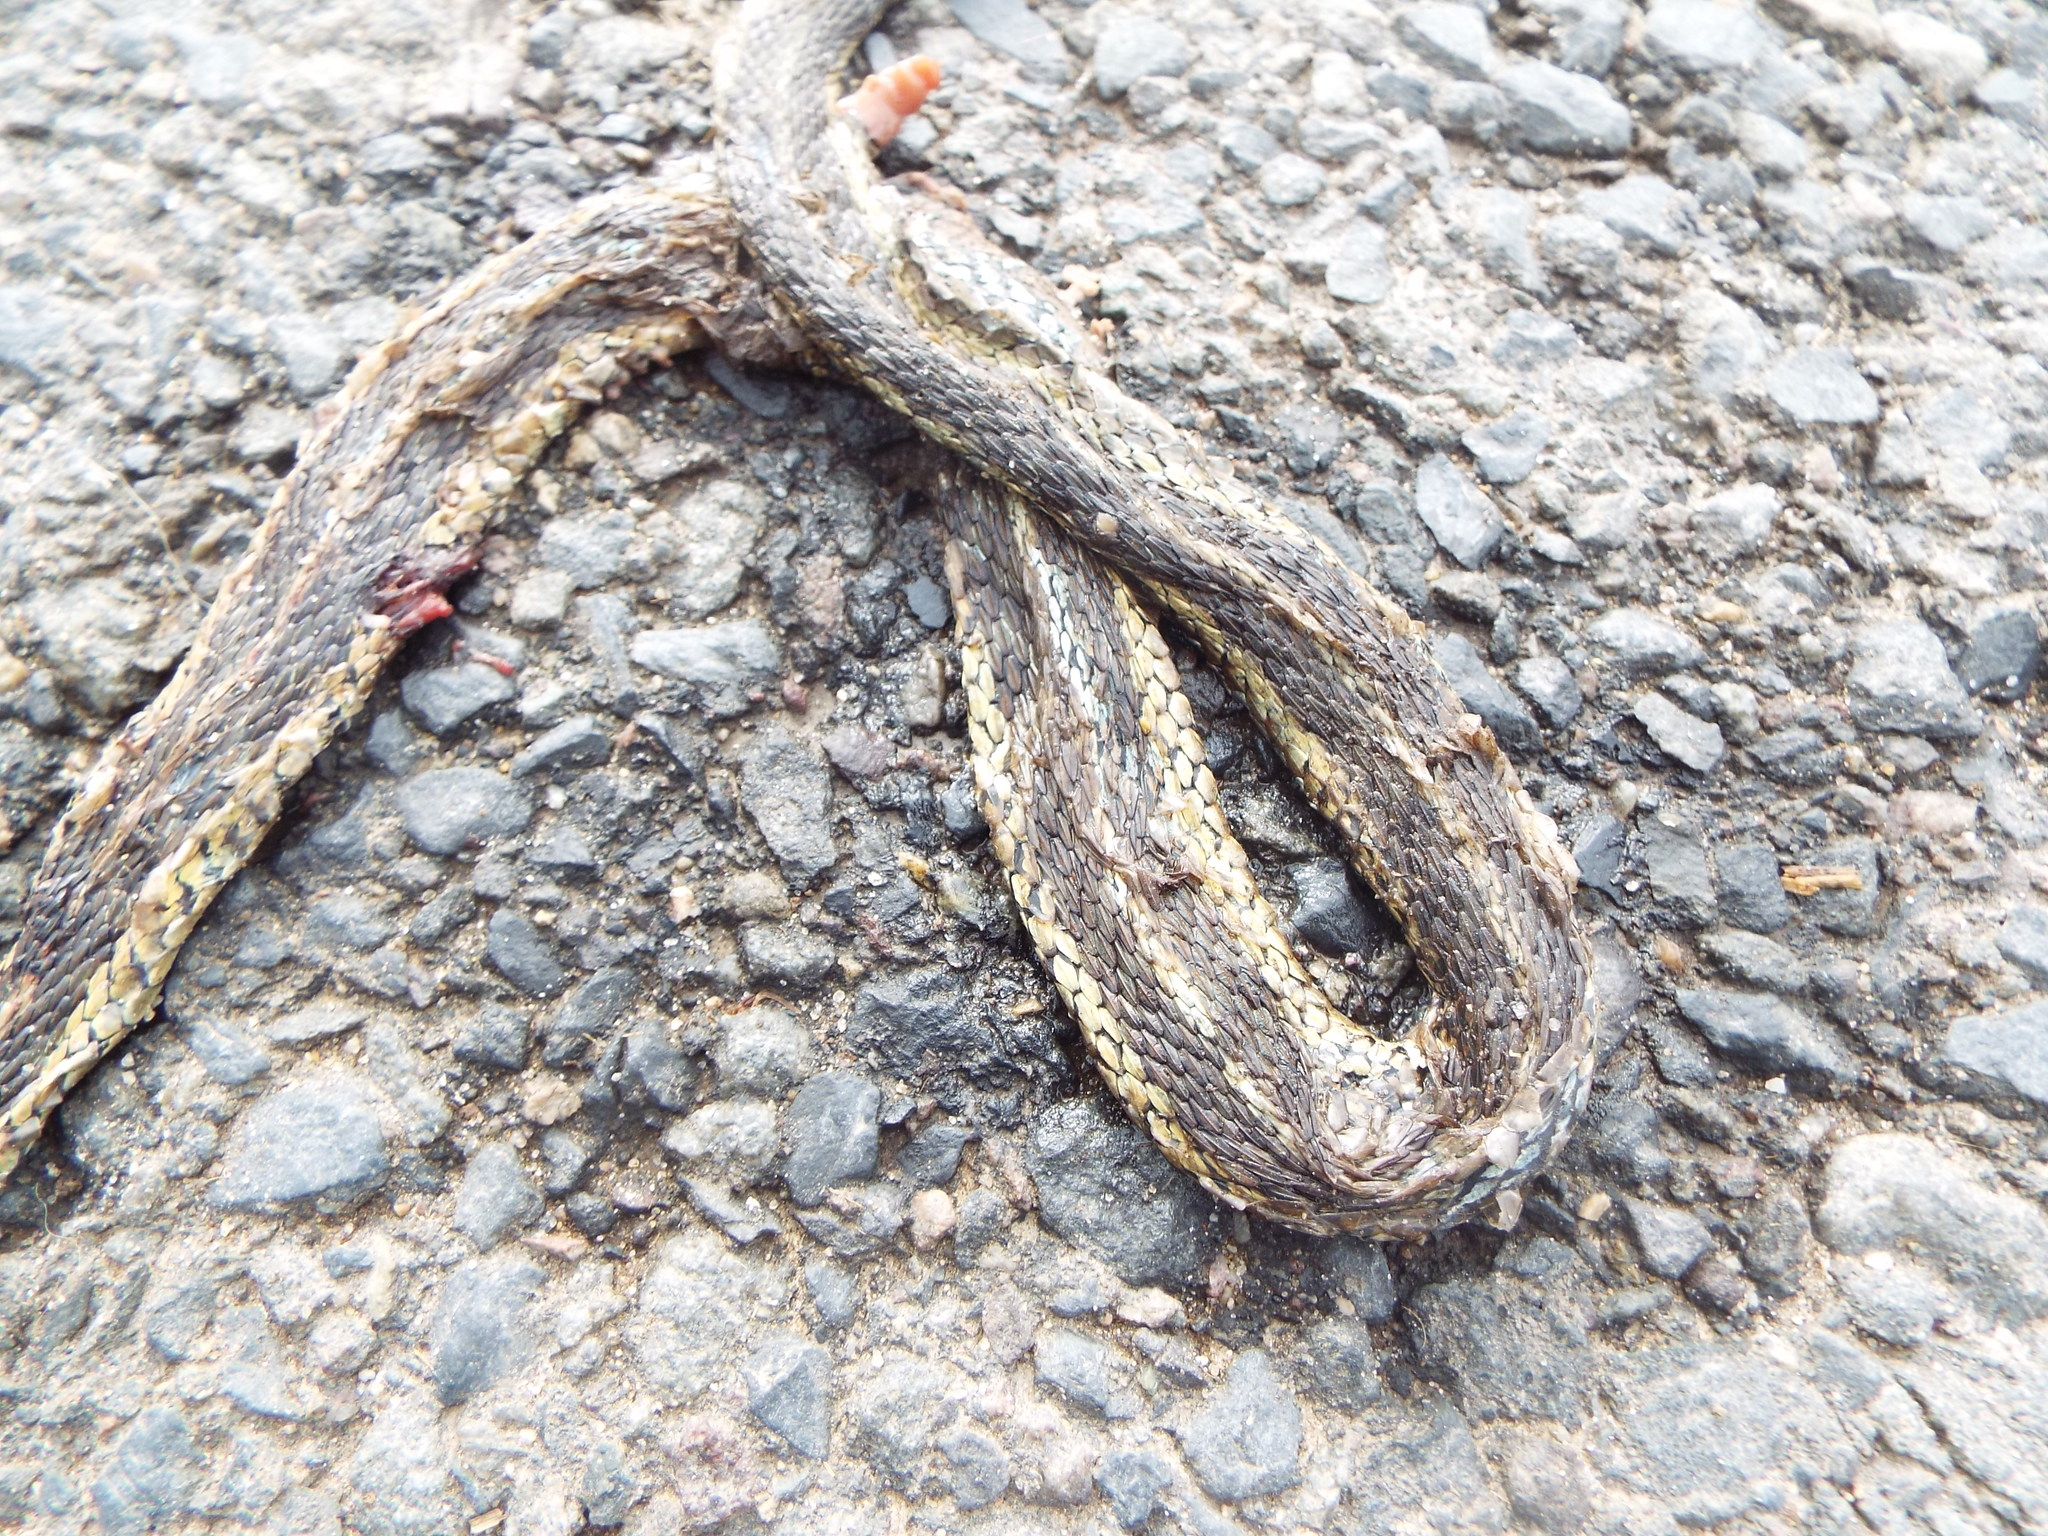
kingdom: Animalia
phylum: Chordata
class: Squamata
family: Colubridae
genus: Thamnophis
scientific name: Thamnophis sirtalis
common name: Common garter snake
